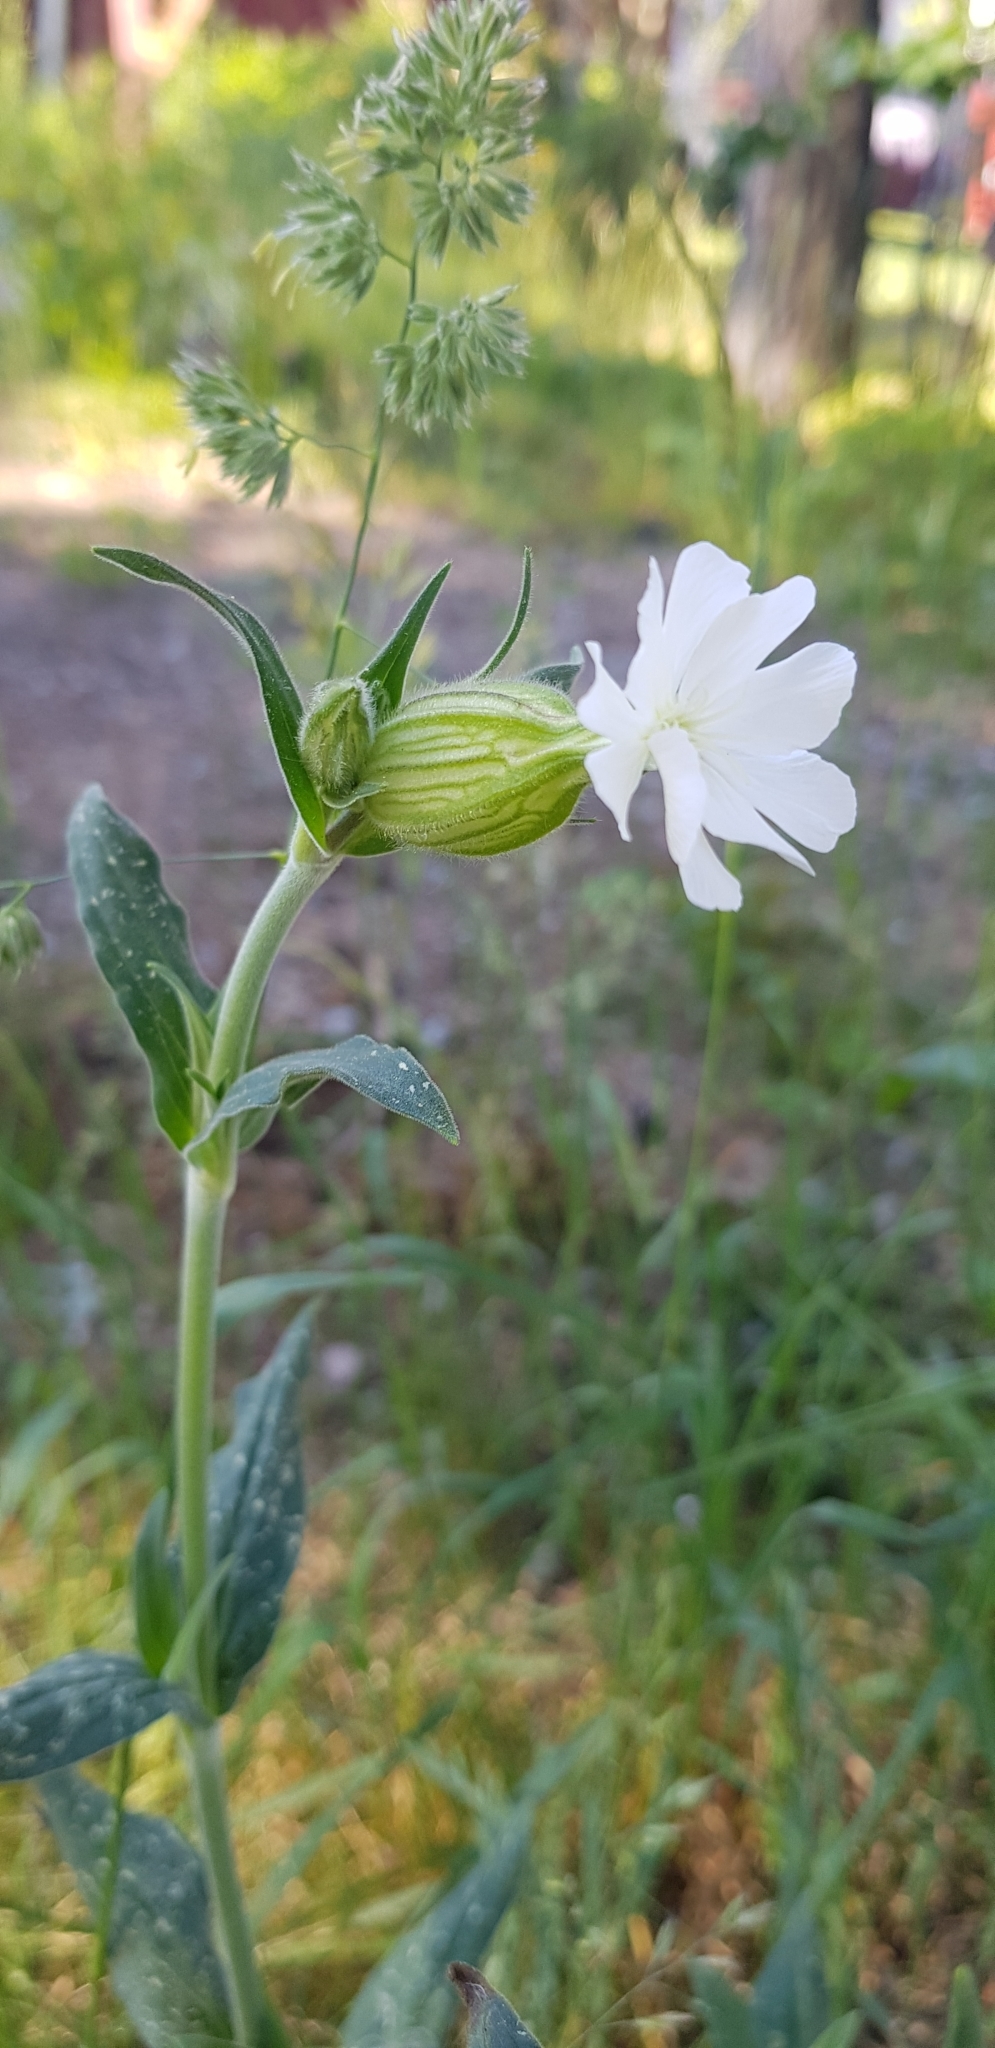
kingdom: Plantae
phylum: Tracheophyta
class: Magnoliopsida
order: Caryophyllales
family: Caryophyllaceae
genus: Silene
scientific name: Silene latifolia
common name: White campion
